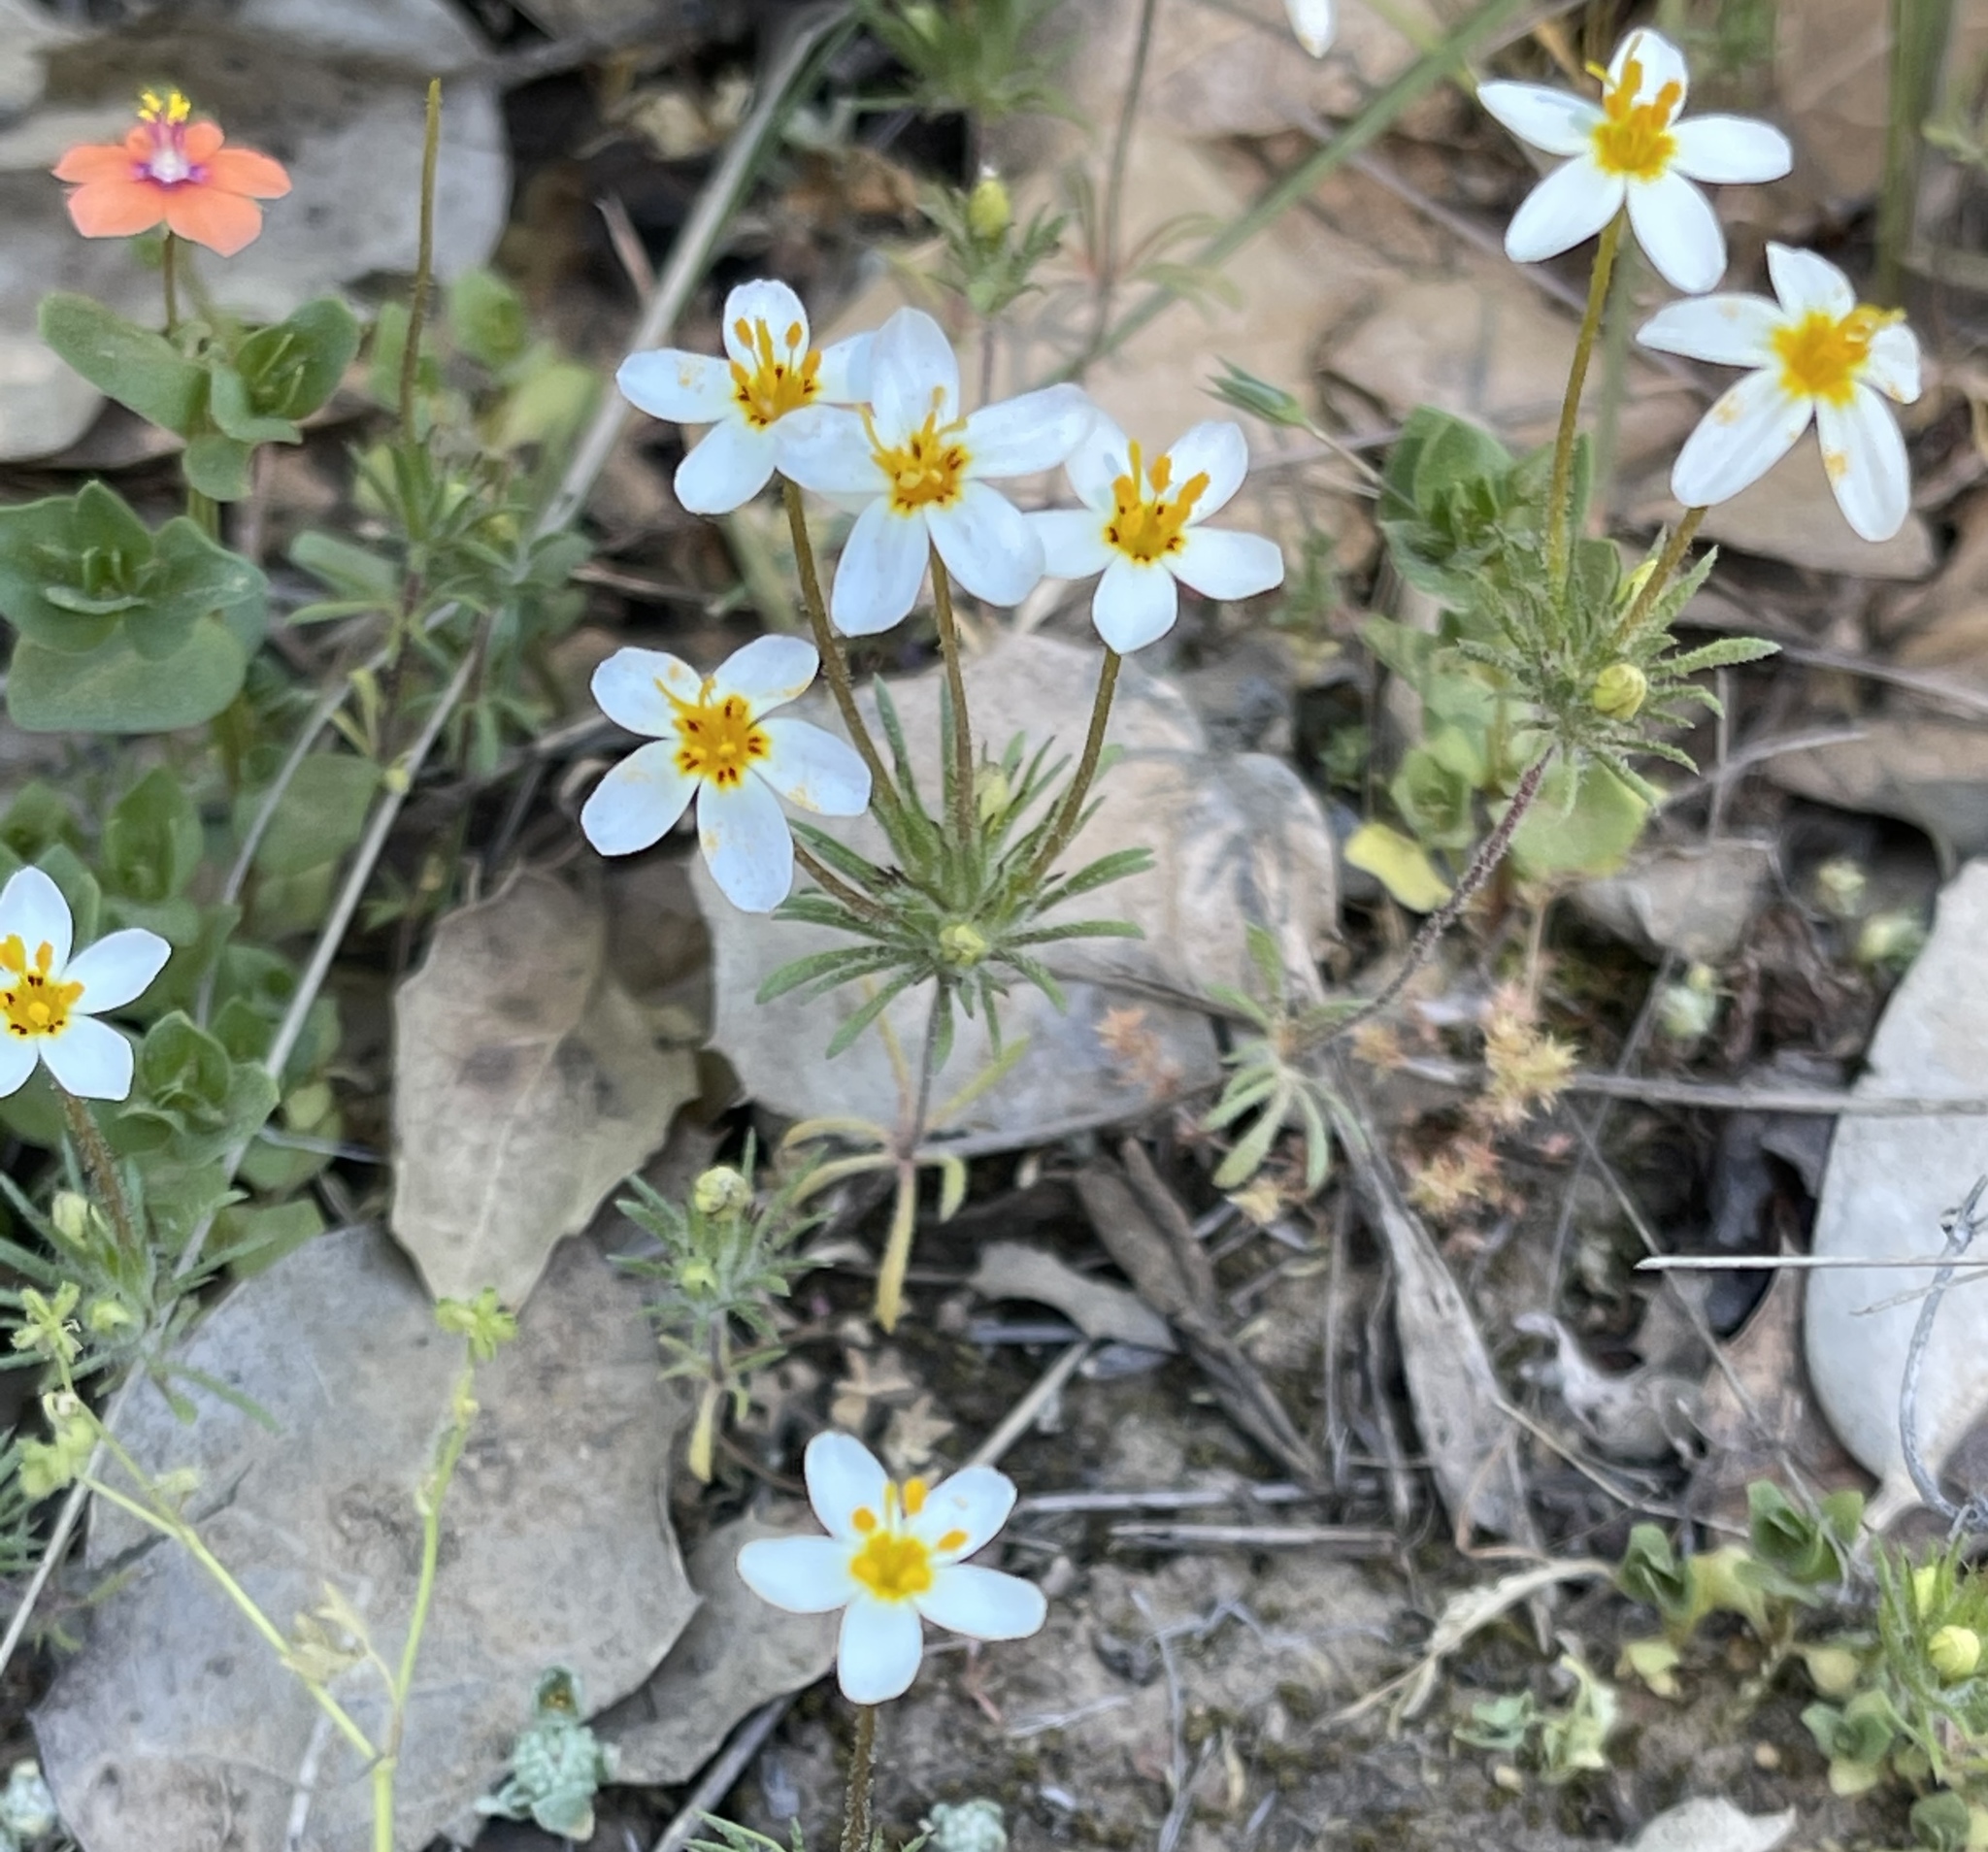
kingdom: Plantae
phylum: Tracheophyta
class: Magnoliopsida
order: Ericales
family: Polemoniaceae
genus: Leptosiphon
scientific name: Leptosiphon parviflorus
